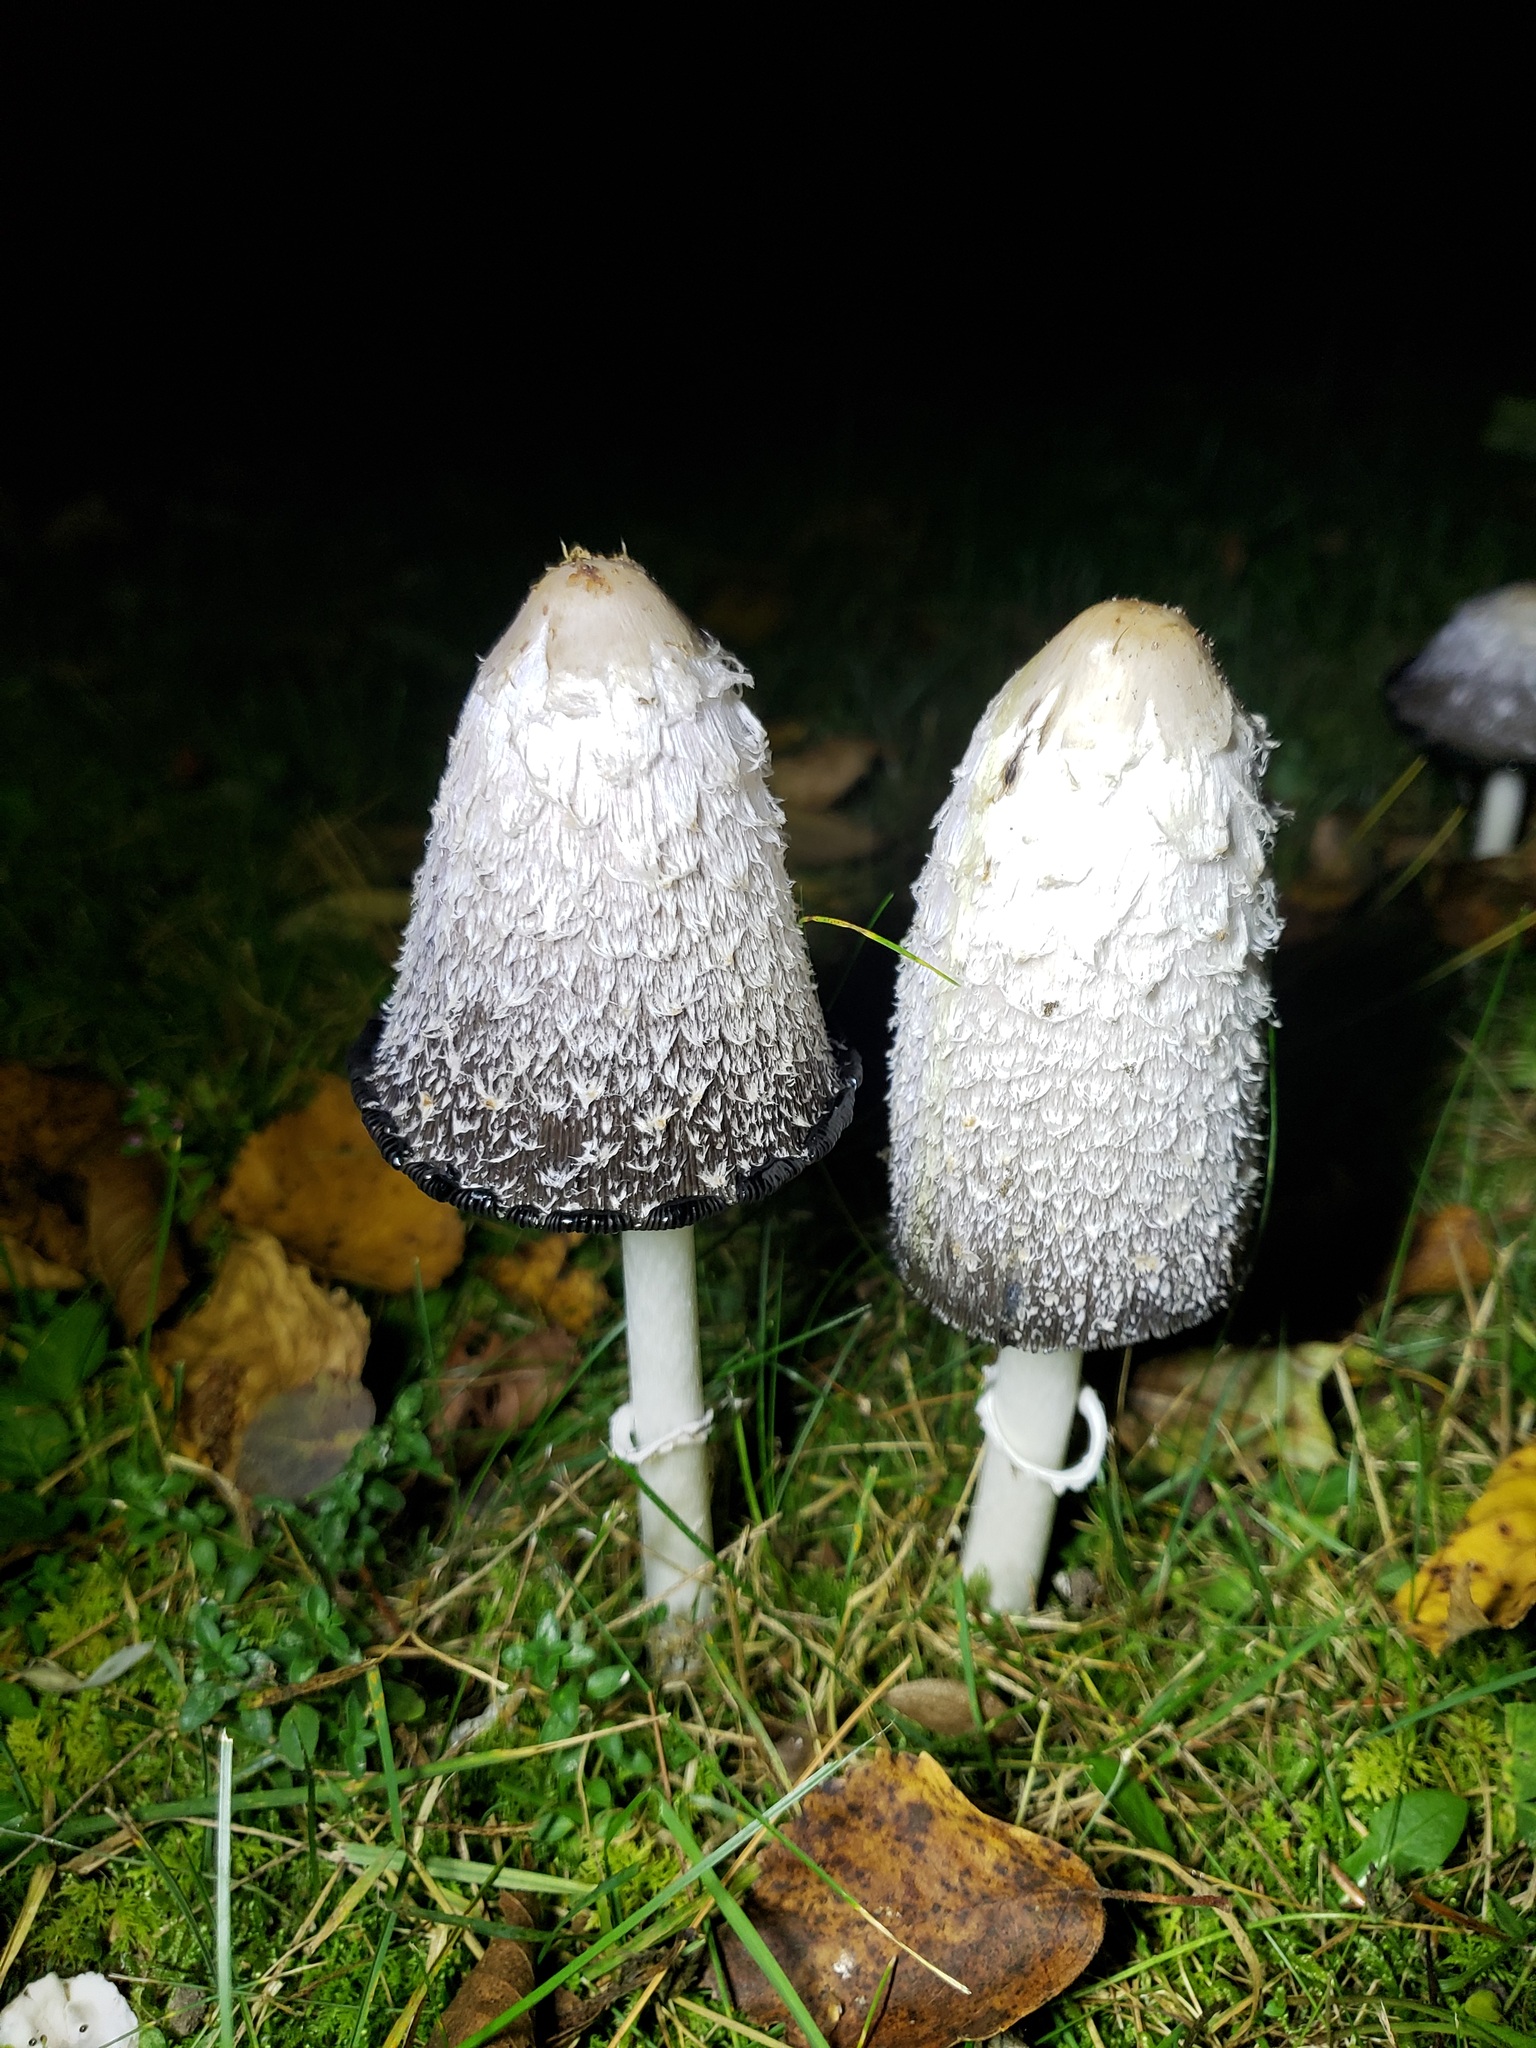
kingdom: Fungi
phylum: Basidiomycota
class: Agaricomycetes
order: Agaricales
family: Agaricaceae
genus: Coprinus
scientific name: Coprinus comatus
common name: Lawyer's wig
